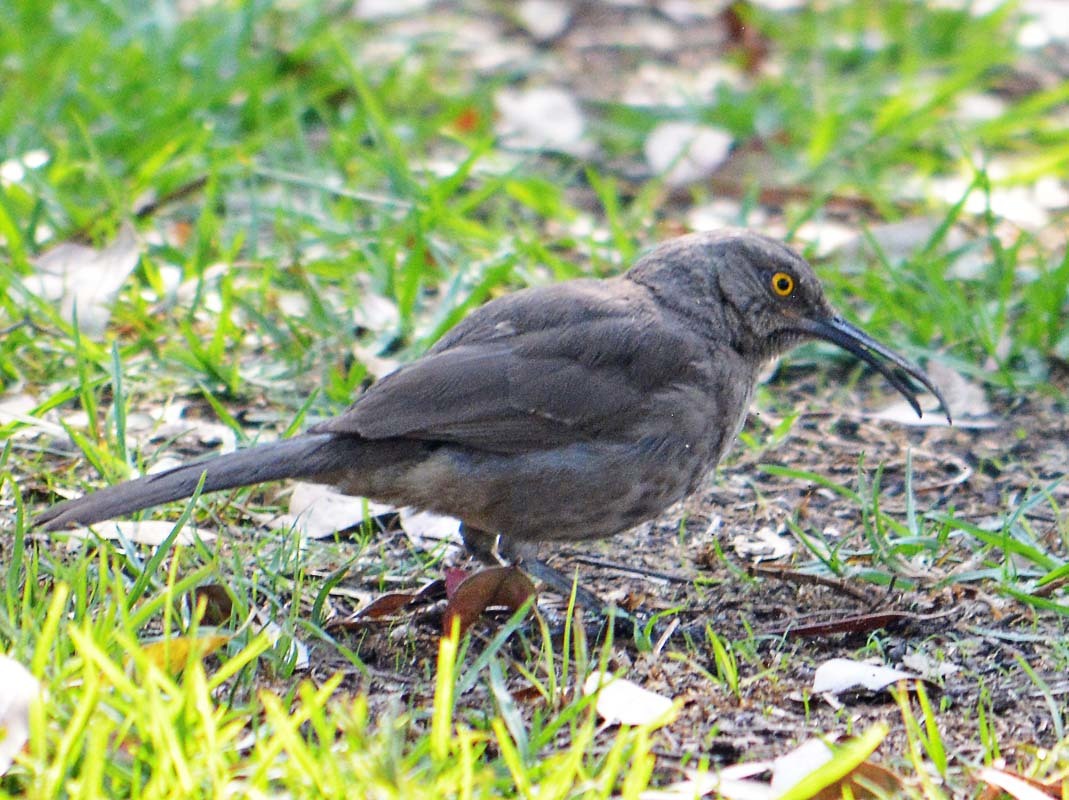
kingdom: Animalia
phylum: Chordata
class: Aves
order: Passeriformes
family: Mimidae
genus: Toxostoma
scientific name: Toxostoma curvirostre
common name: Curve-billed thrasher
